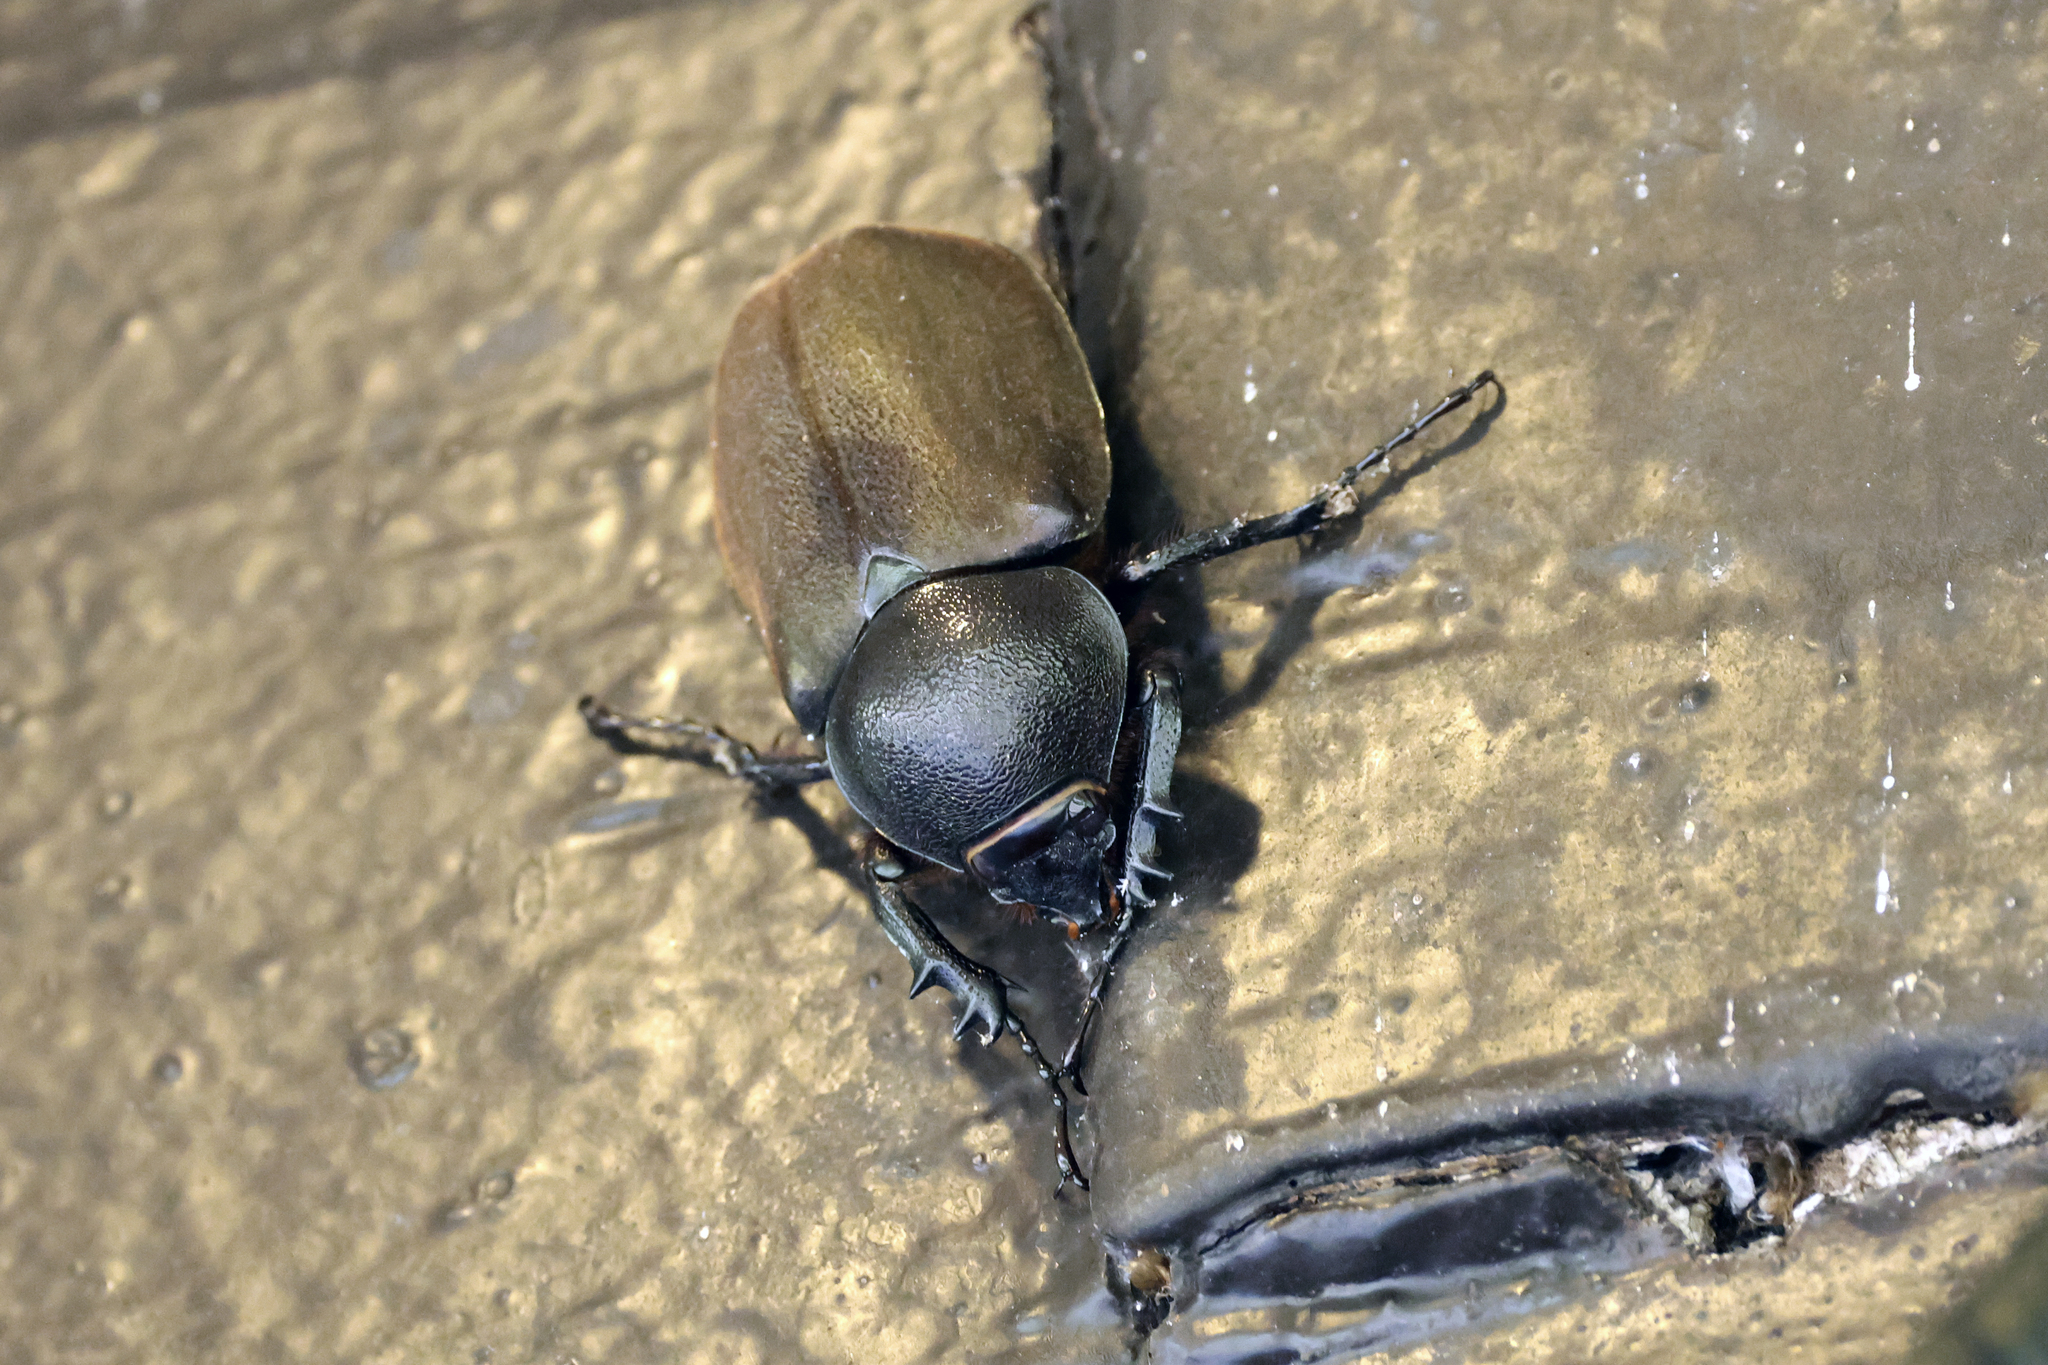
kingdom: Animalia
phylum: Arthropoda
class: Insecta
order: Coleoptera
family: Scarabaeidae
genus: Chalcosoma
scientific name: Chalcosoma moellenkampi
